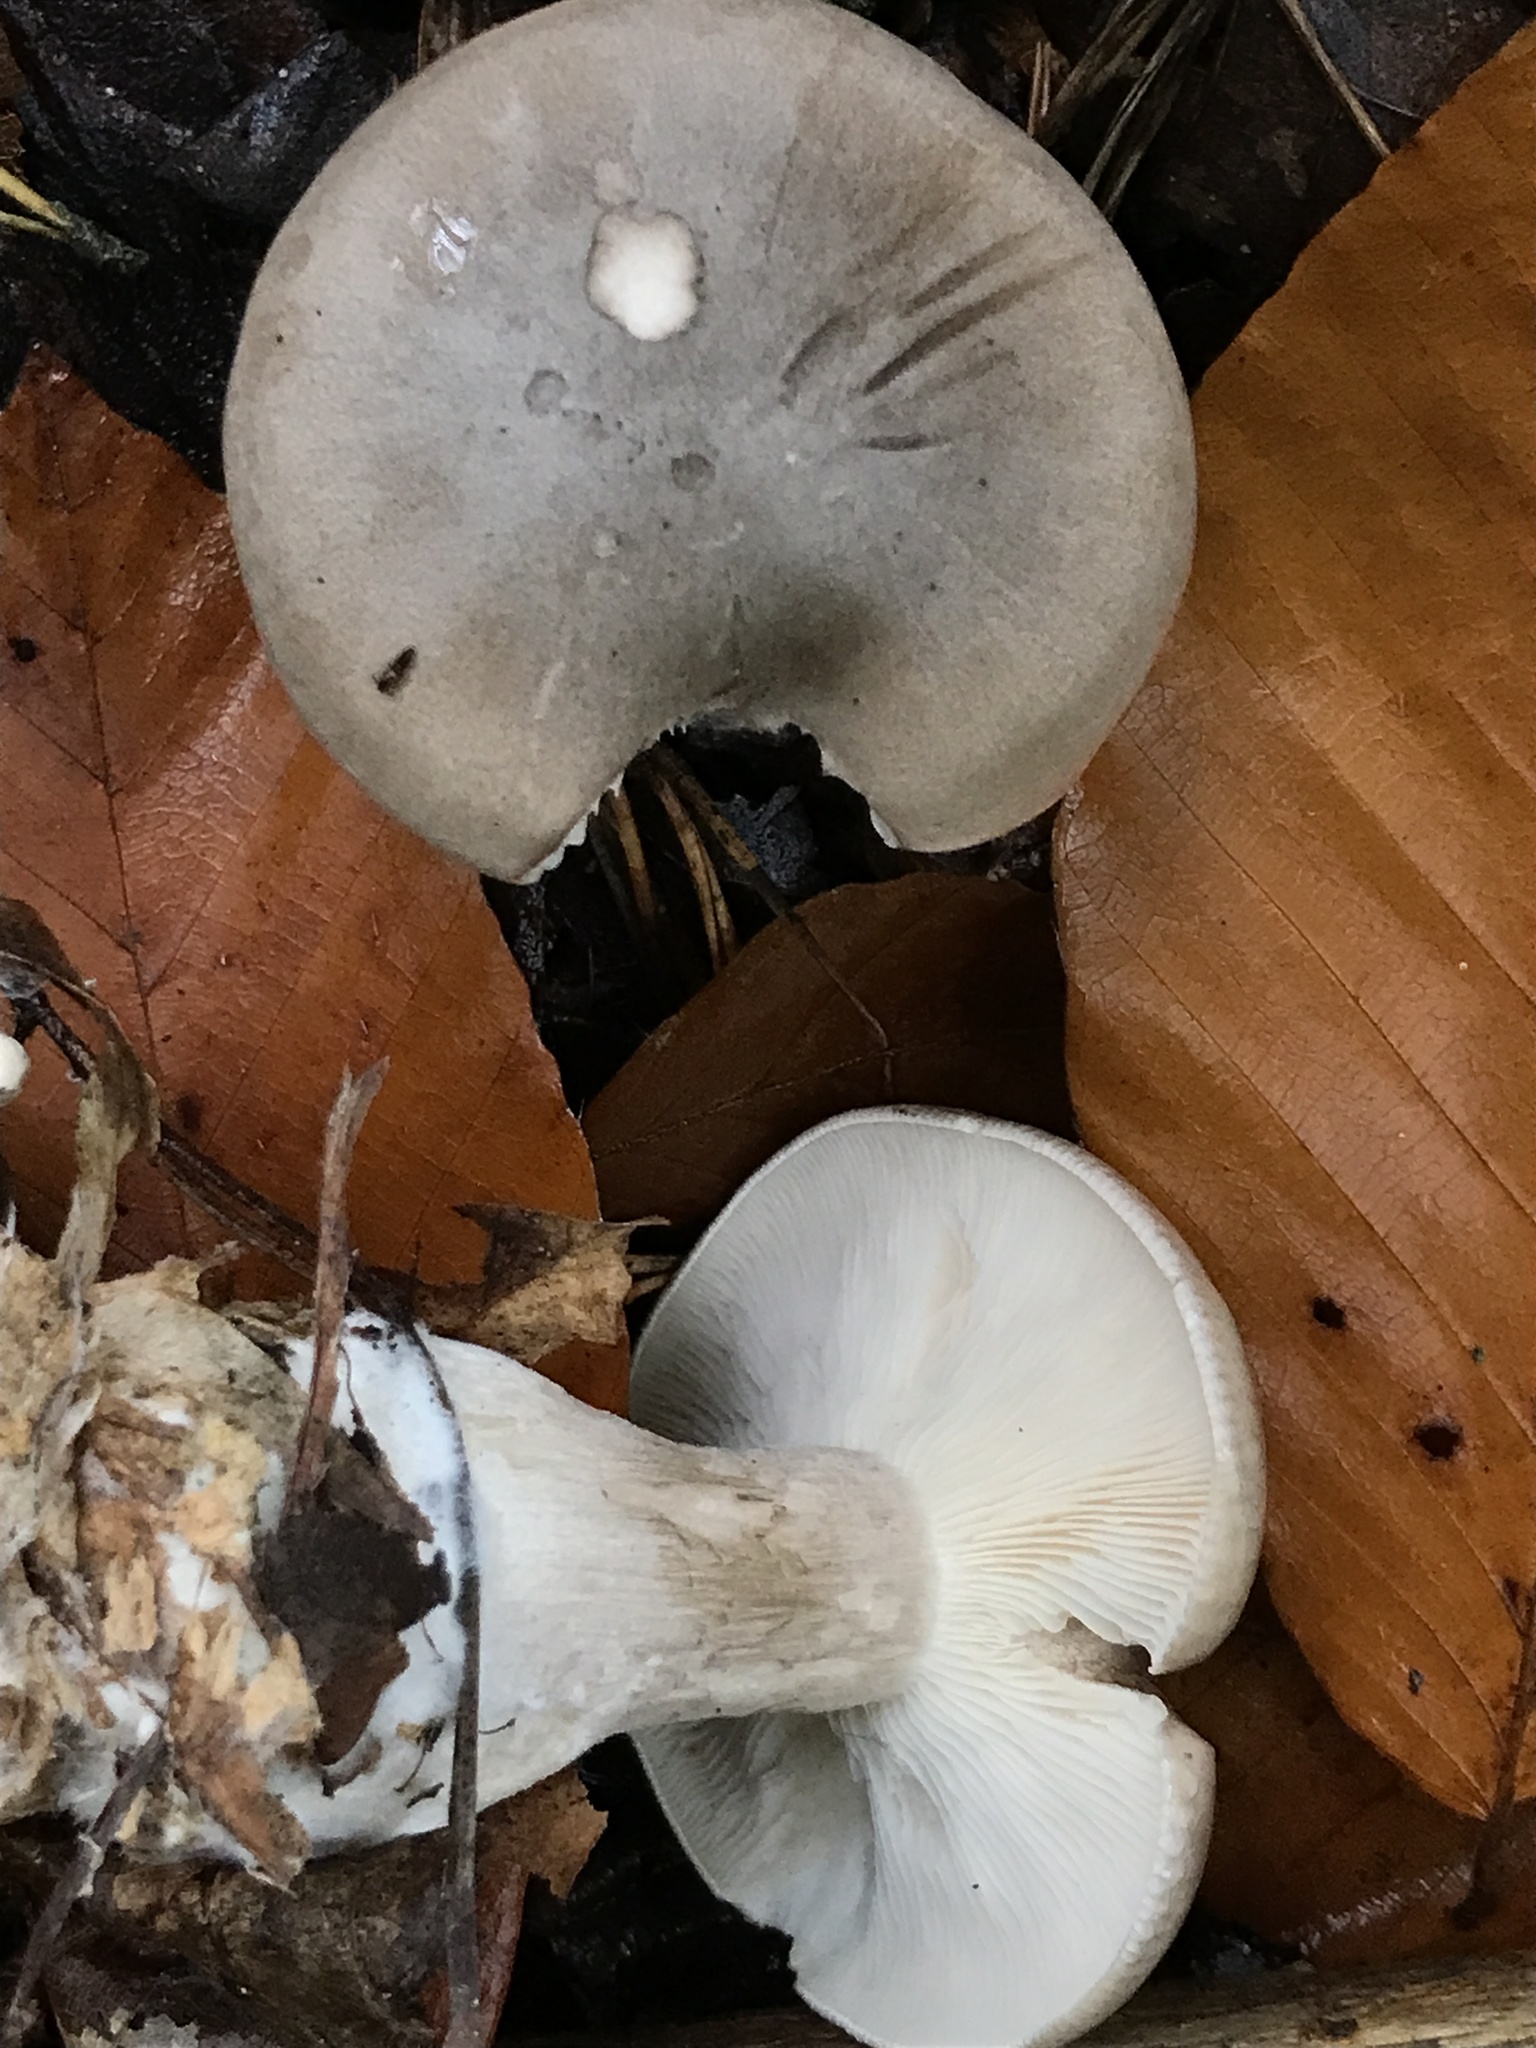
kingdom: Fungi
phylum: Basidiomycota
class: Agaricomycetes
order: Agaricales
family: Tricholomataceae
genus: Clitocybe
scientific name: Clitocybe nebularis
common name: Clouded agaric
